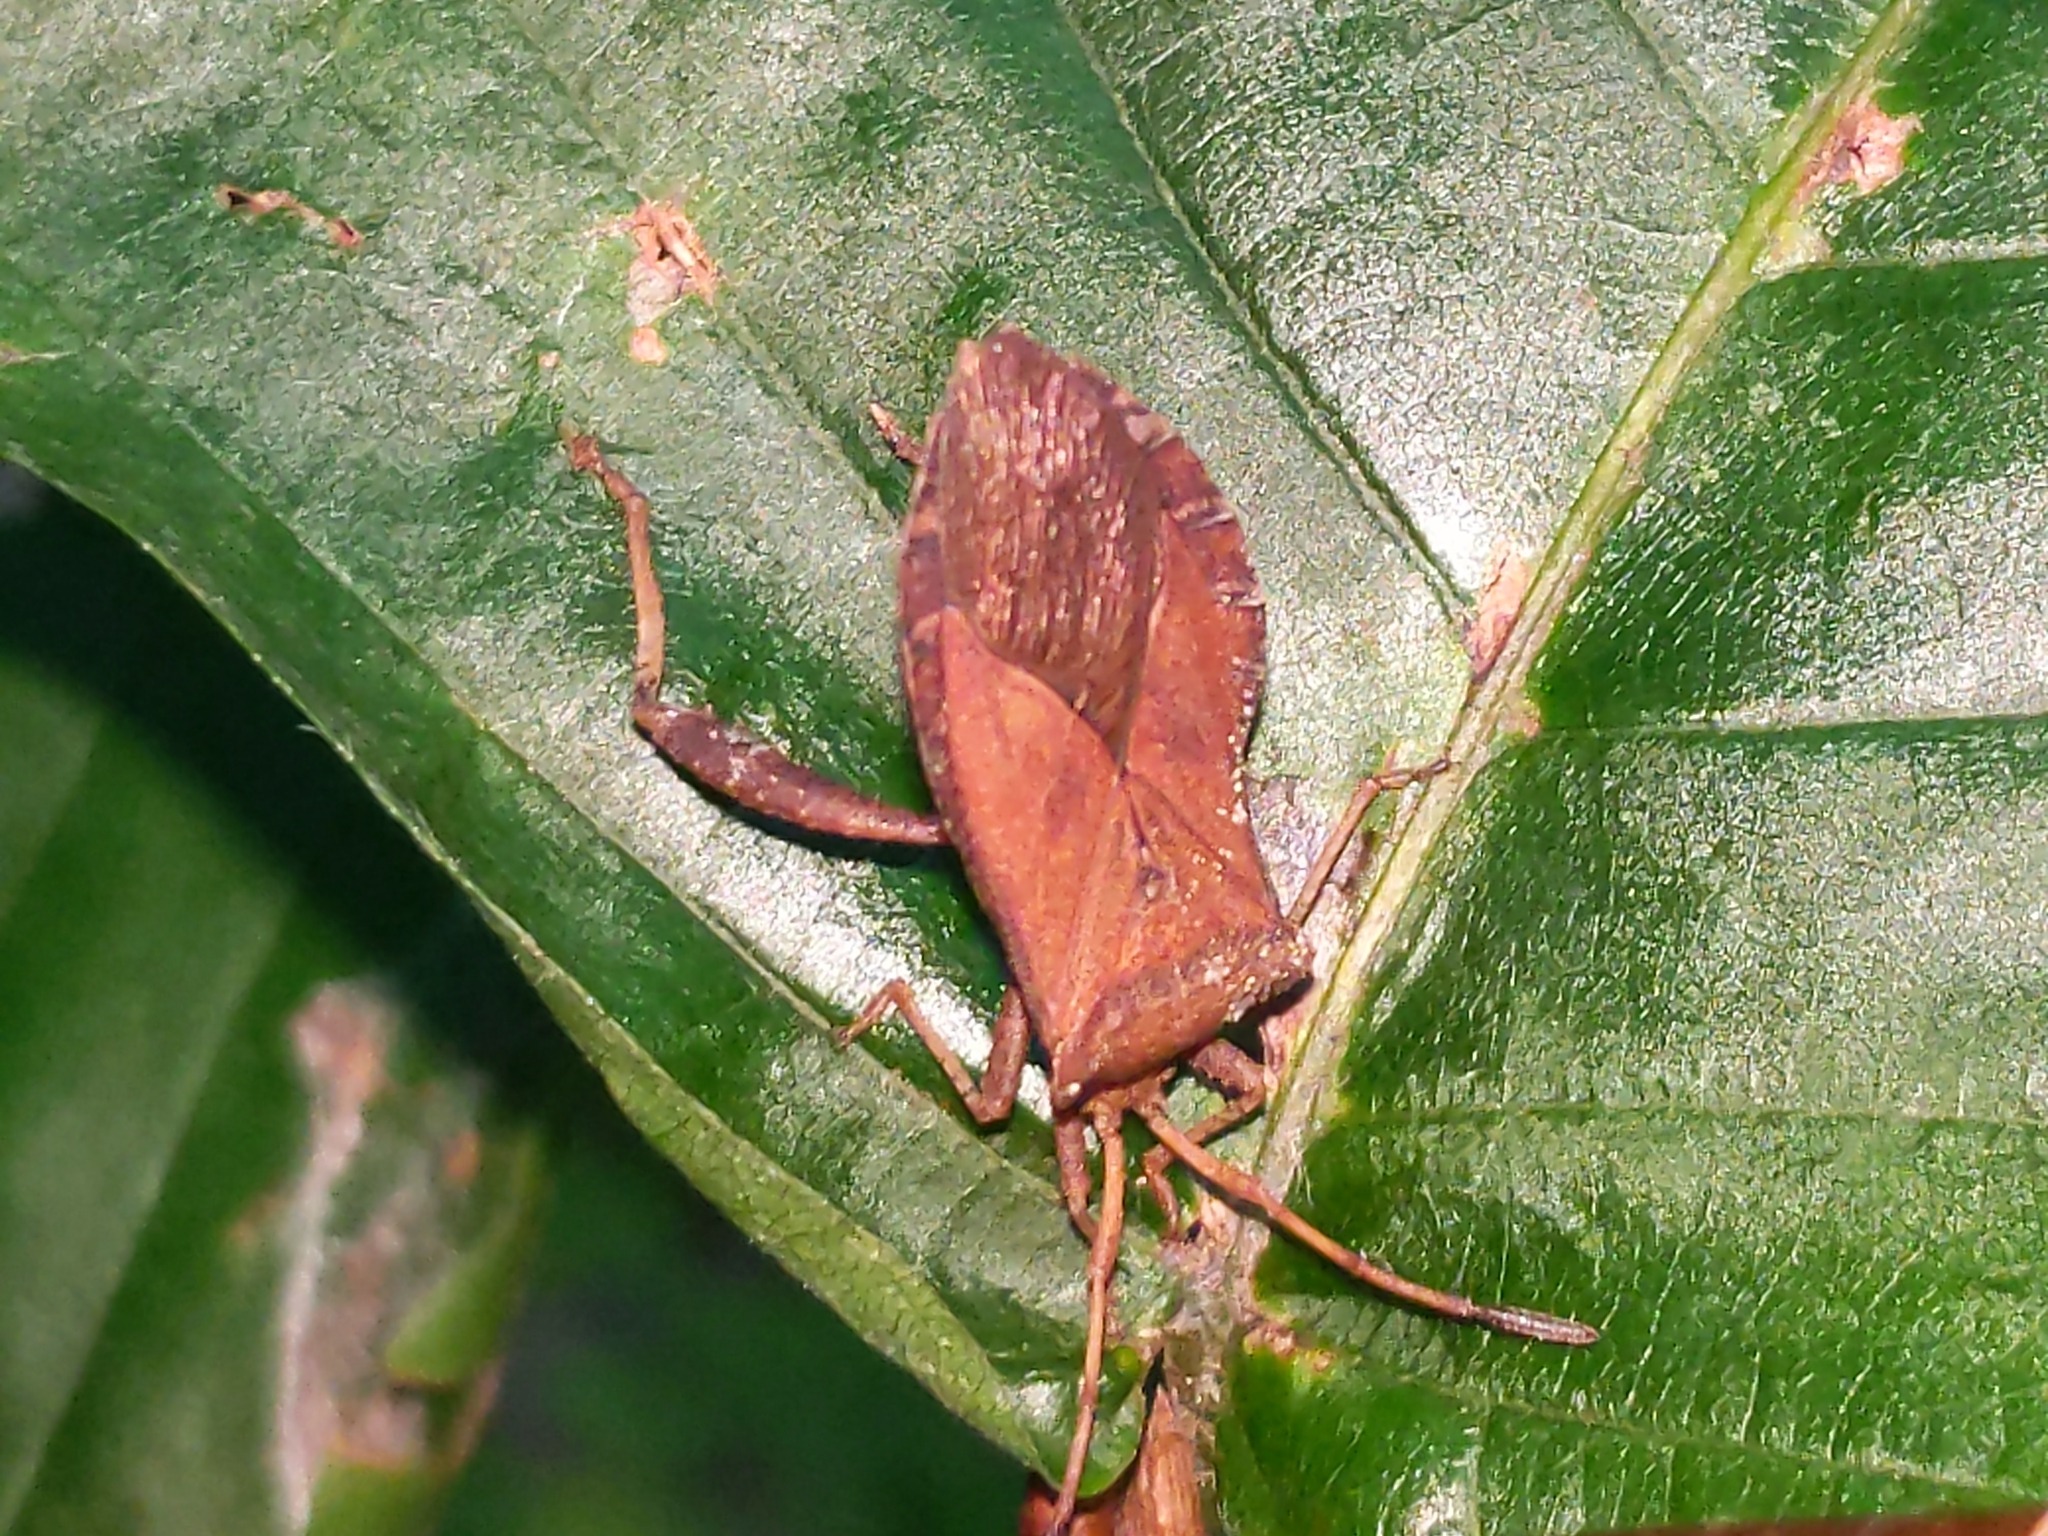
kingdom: Animalia
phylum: Arthropoda
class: Insecta
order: Hemiptera
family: Coreidae
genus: Euthochtha
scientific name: Euthochtha galeator
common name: Helmeted squash bug
